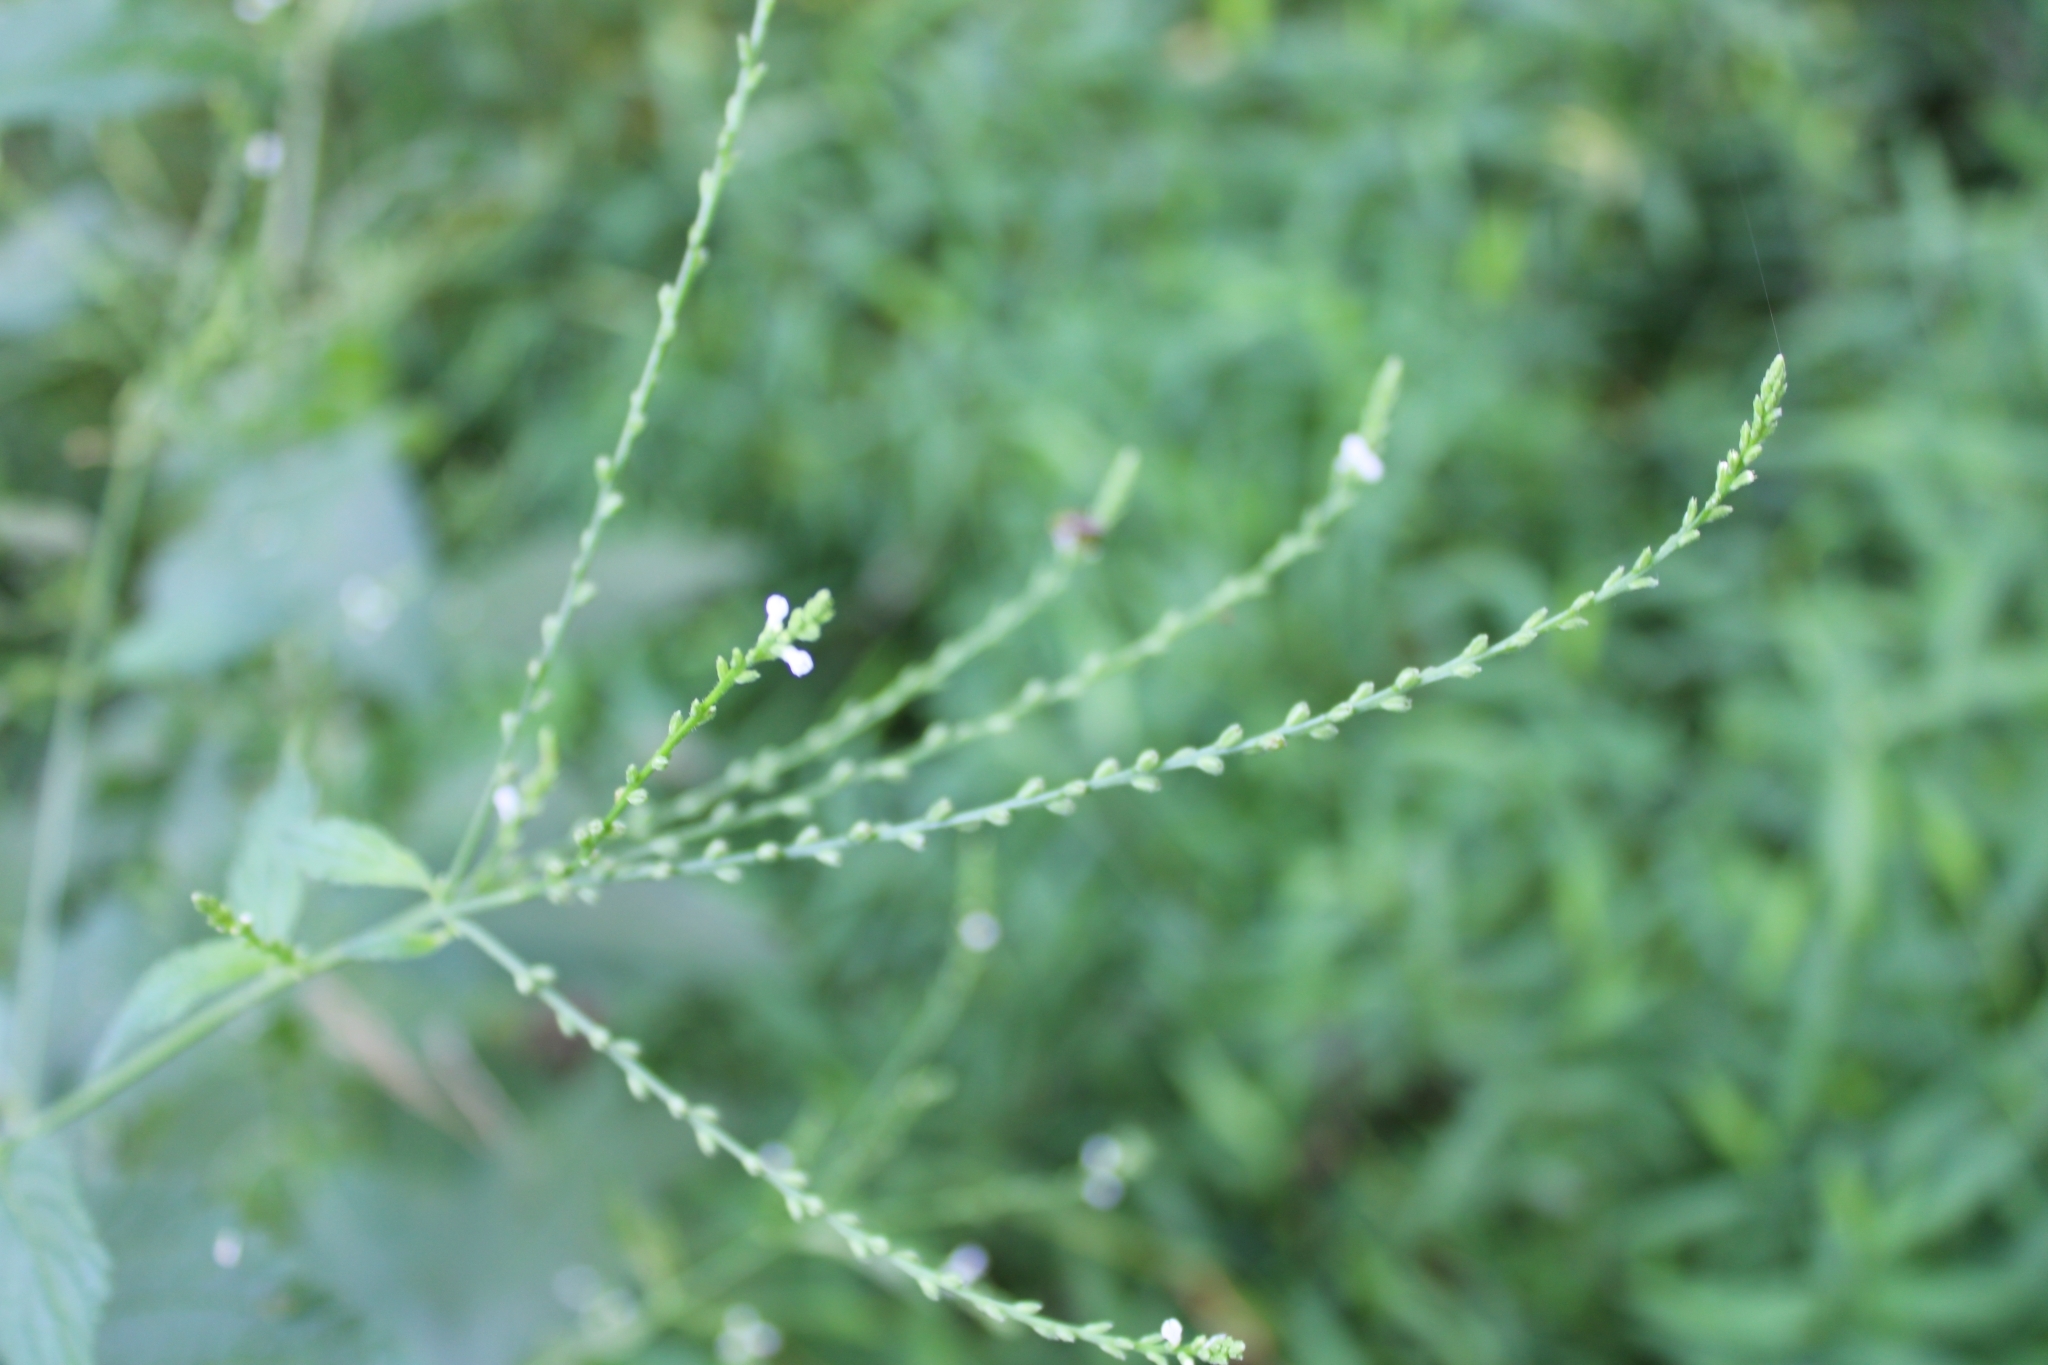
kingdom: Plantae
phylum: Tracheophyta
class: Magnoliopsida
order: Lamiales
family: Verbenaceae
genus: Verbena
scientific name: Verbena urticifolia
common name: Nettle-leaved vervain
